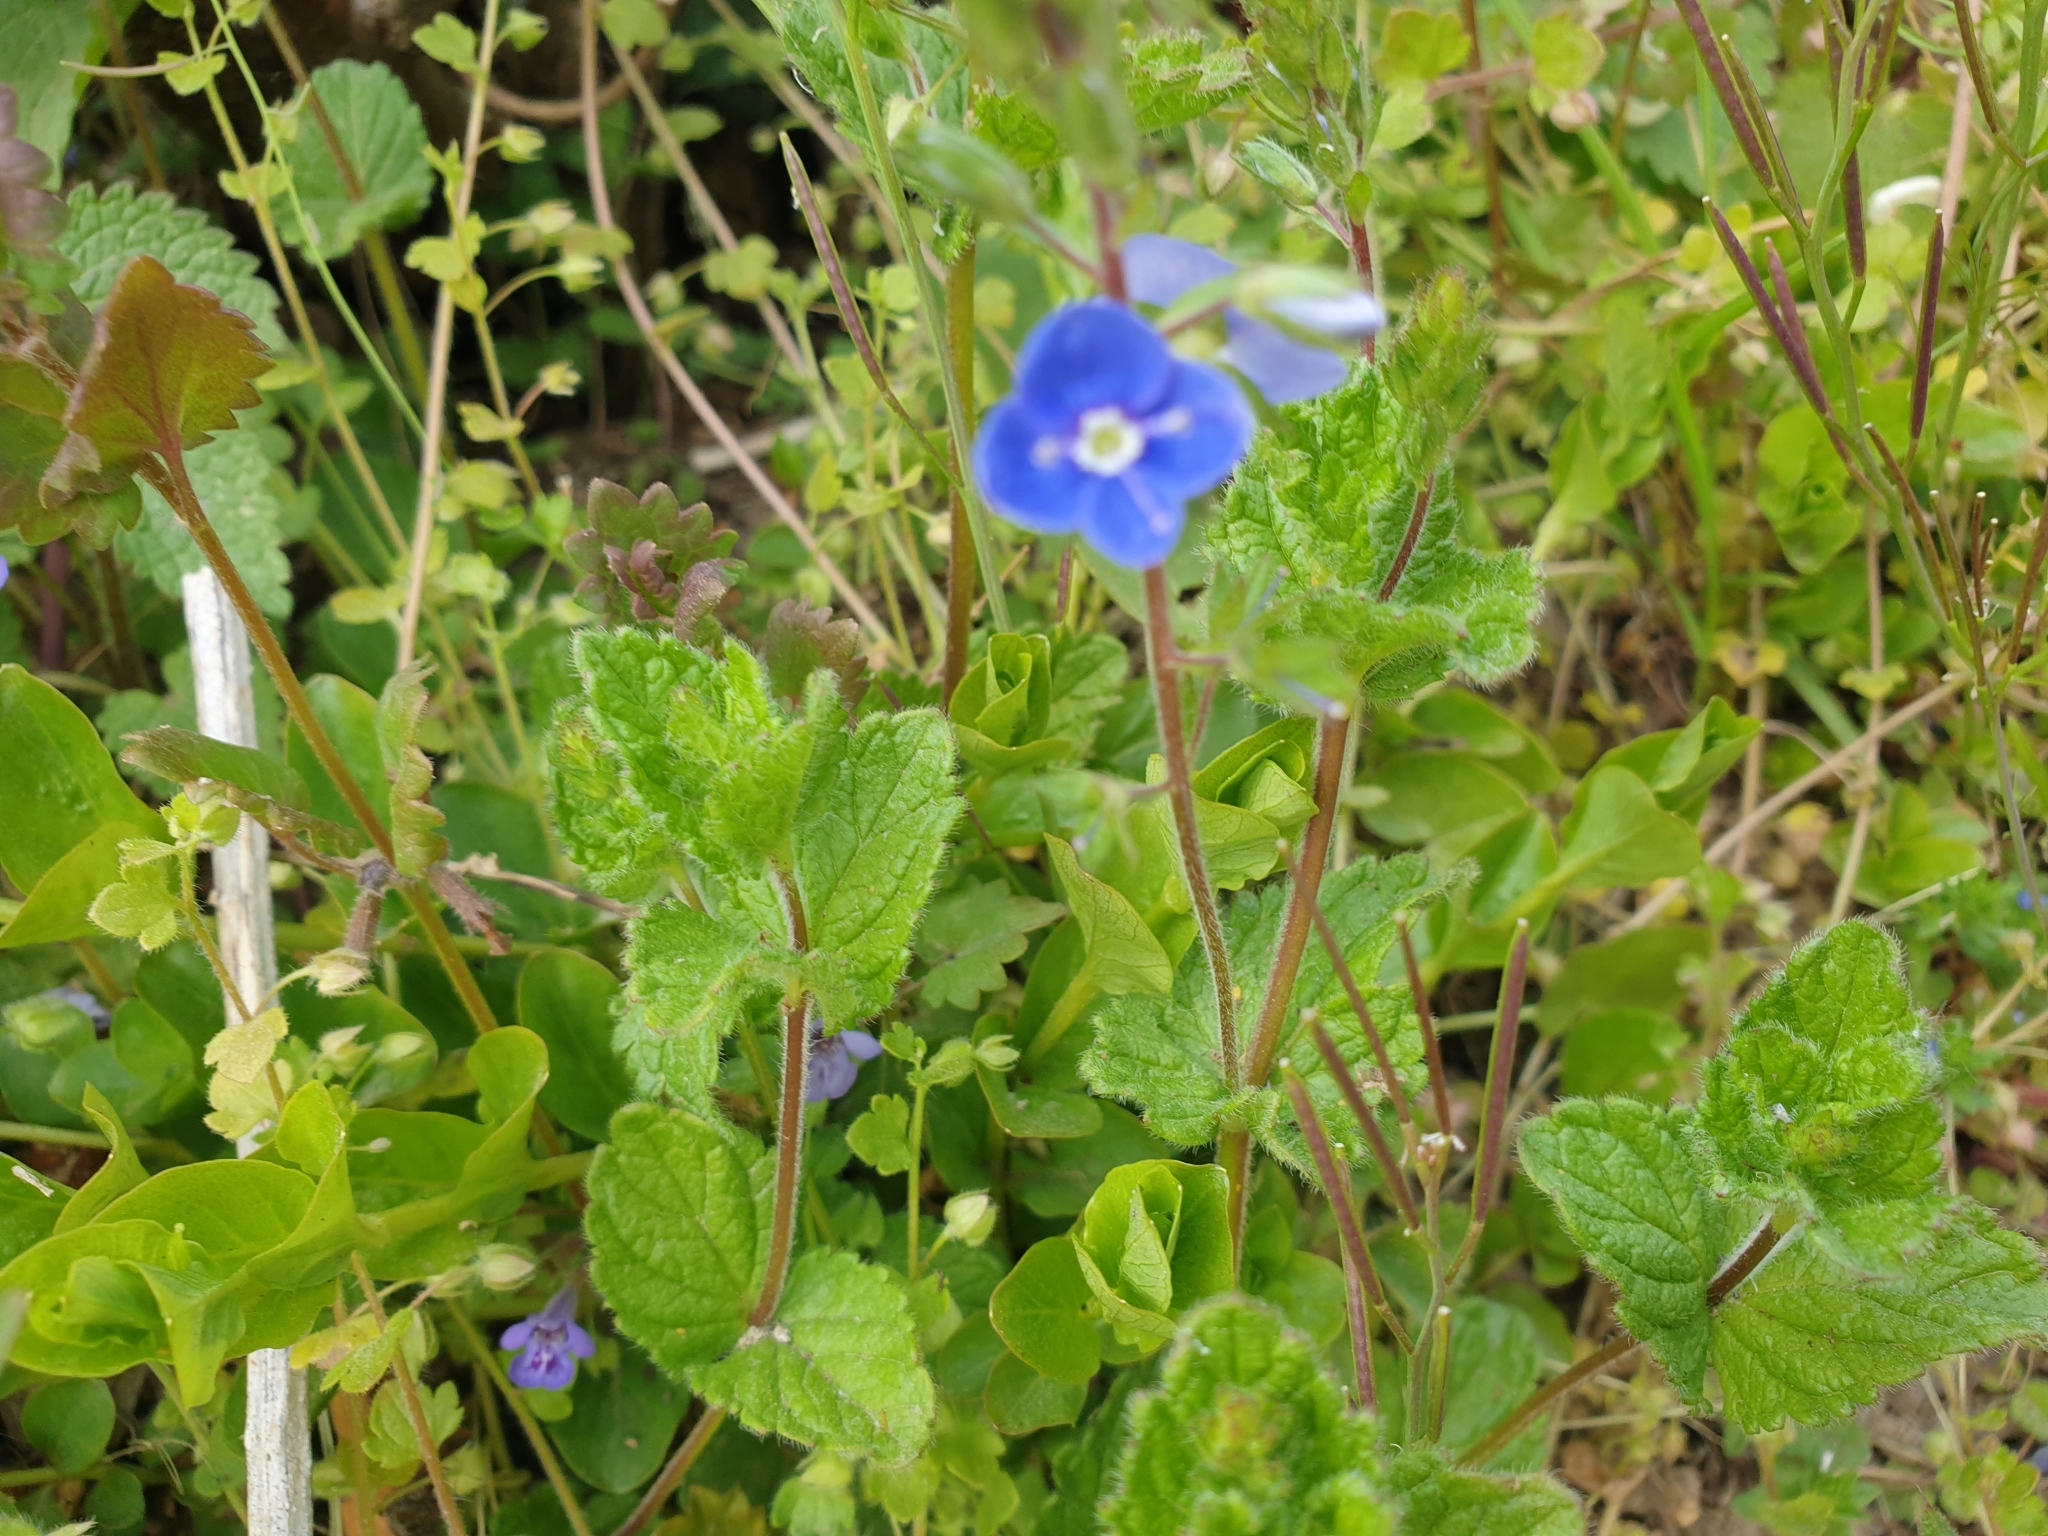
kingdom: Plantae
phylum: Tracheophyta
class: Magnoliopsida
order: Lamiales
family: Plantaginaceae
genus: Veronica
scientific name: Veronica chamaedrys
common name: Germander speedwell
